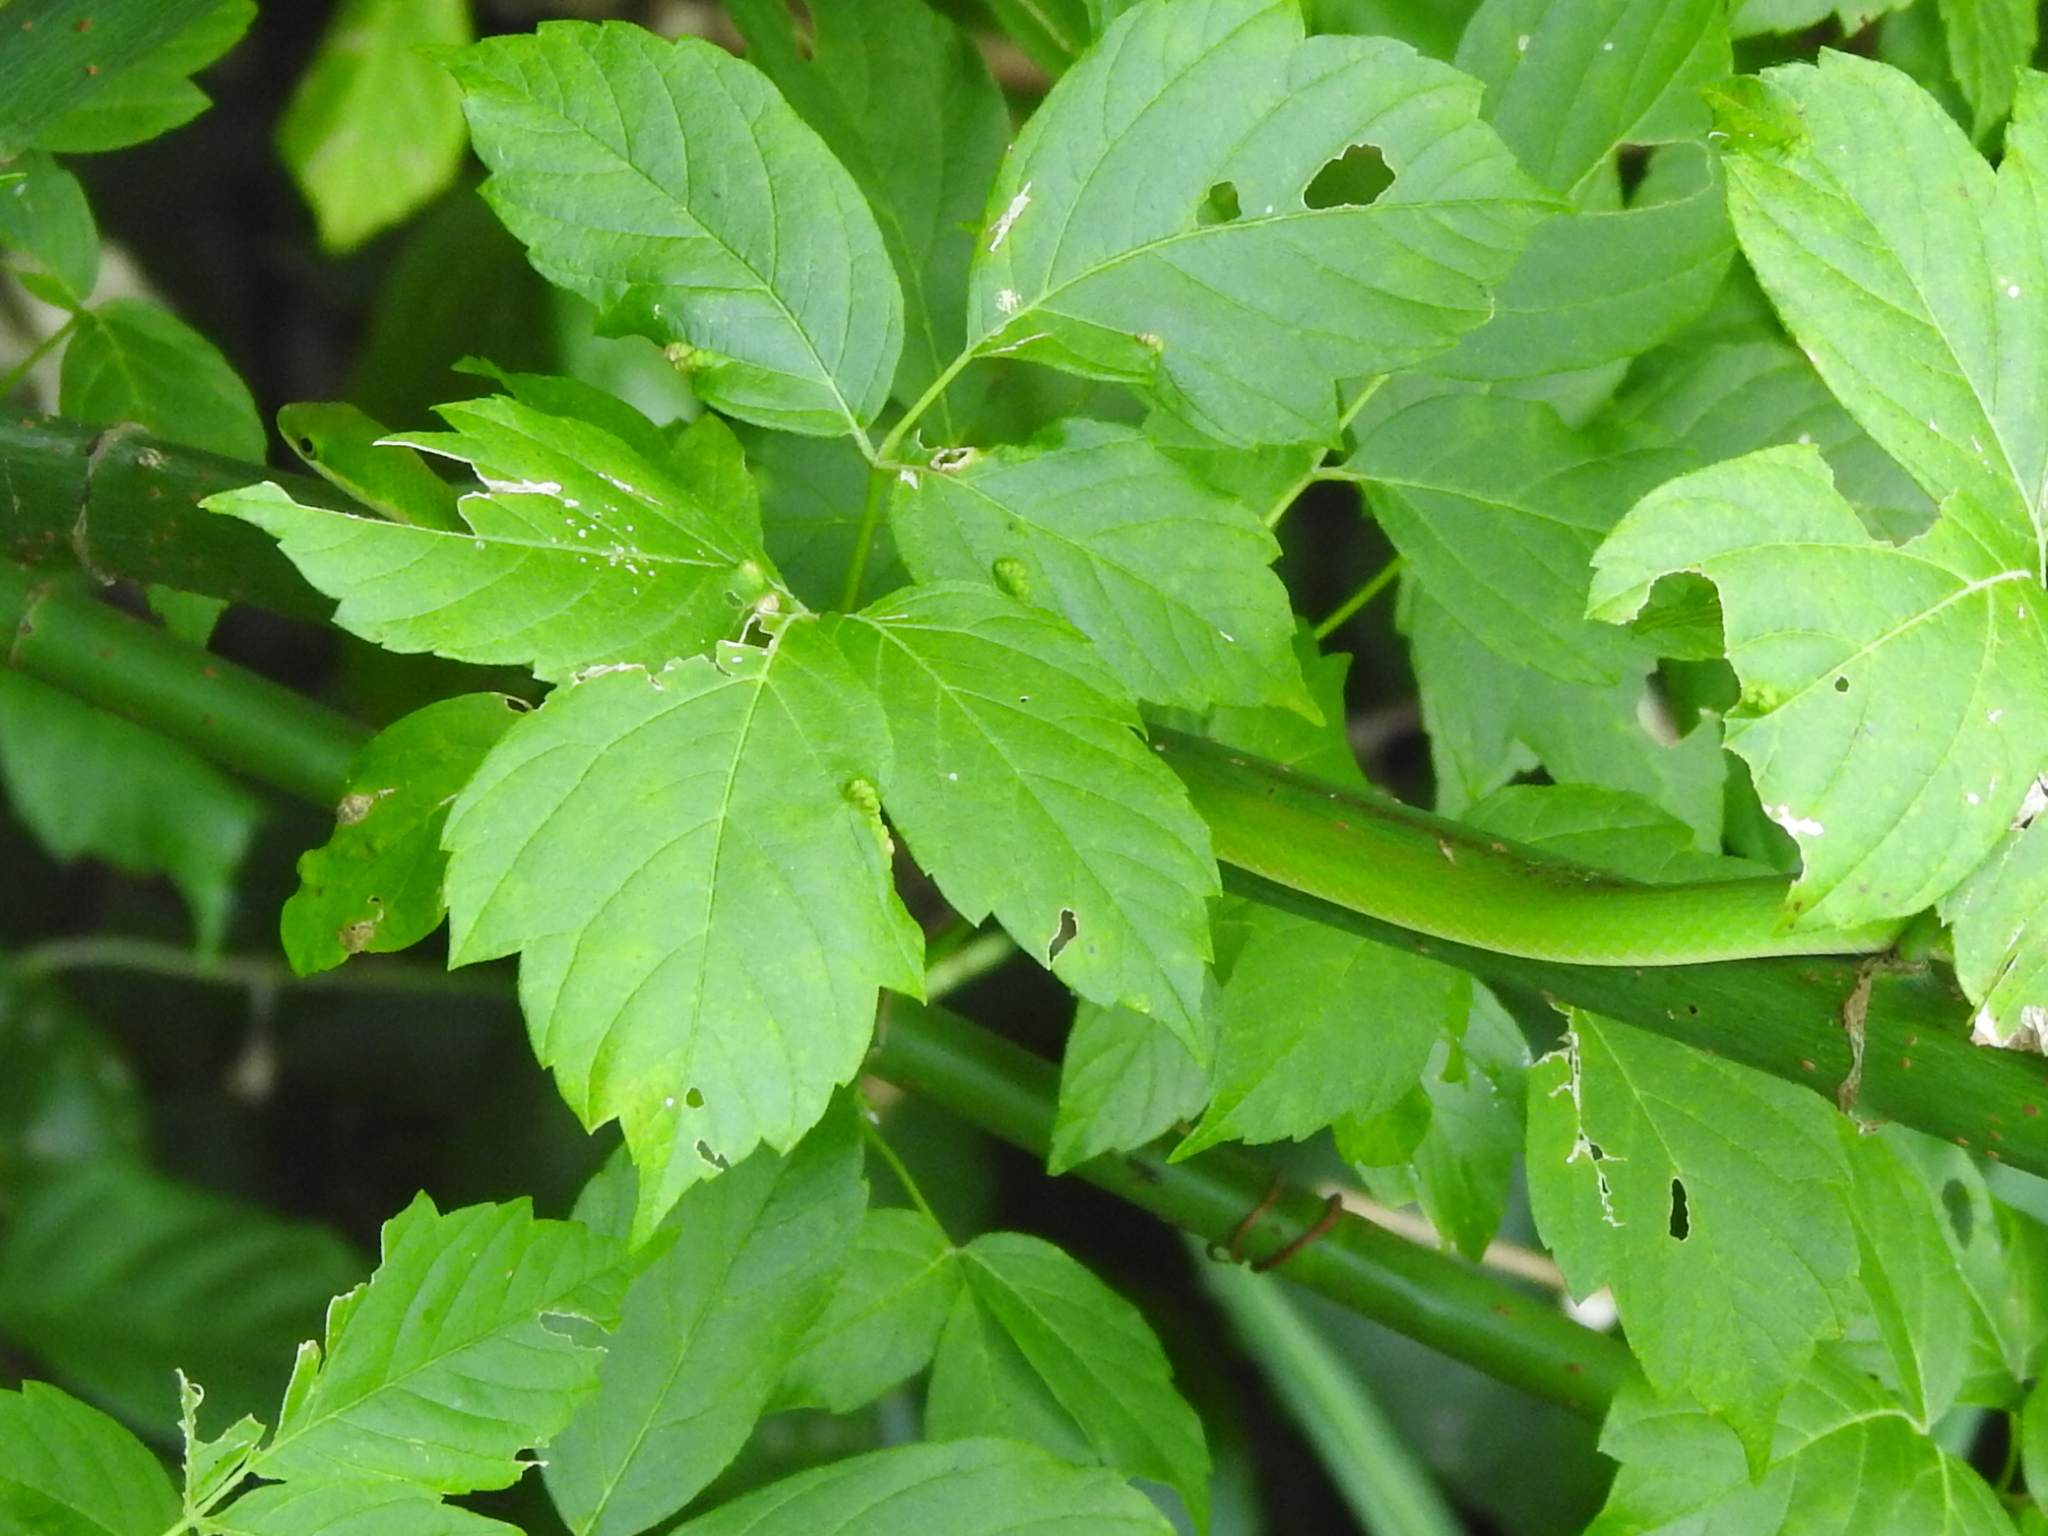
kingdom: Animalia
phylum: Chordata
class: Squamata
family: Colubridae
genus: Opheodrys
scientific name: Opheodrys aestivus
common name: Rough greensnake
